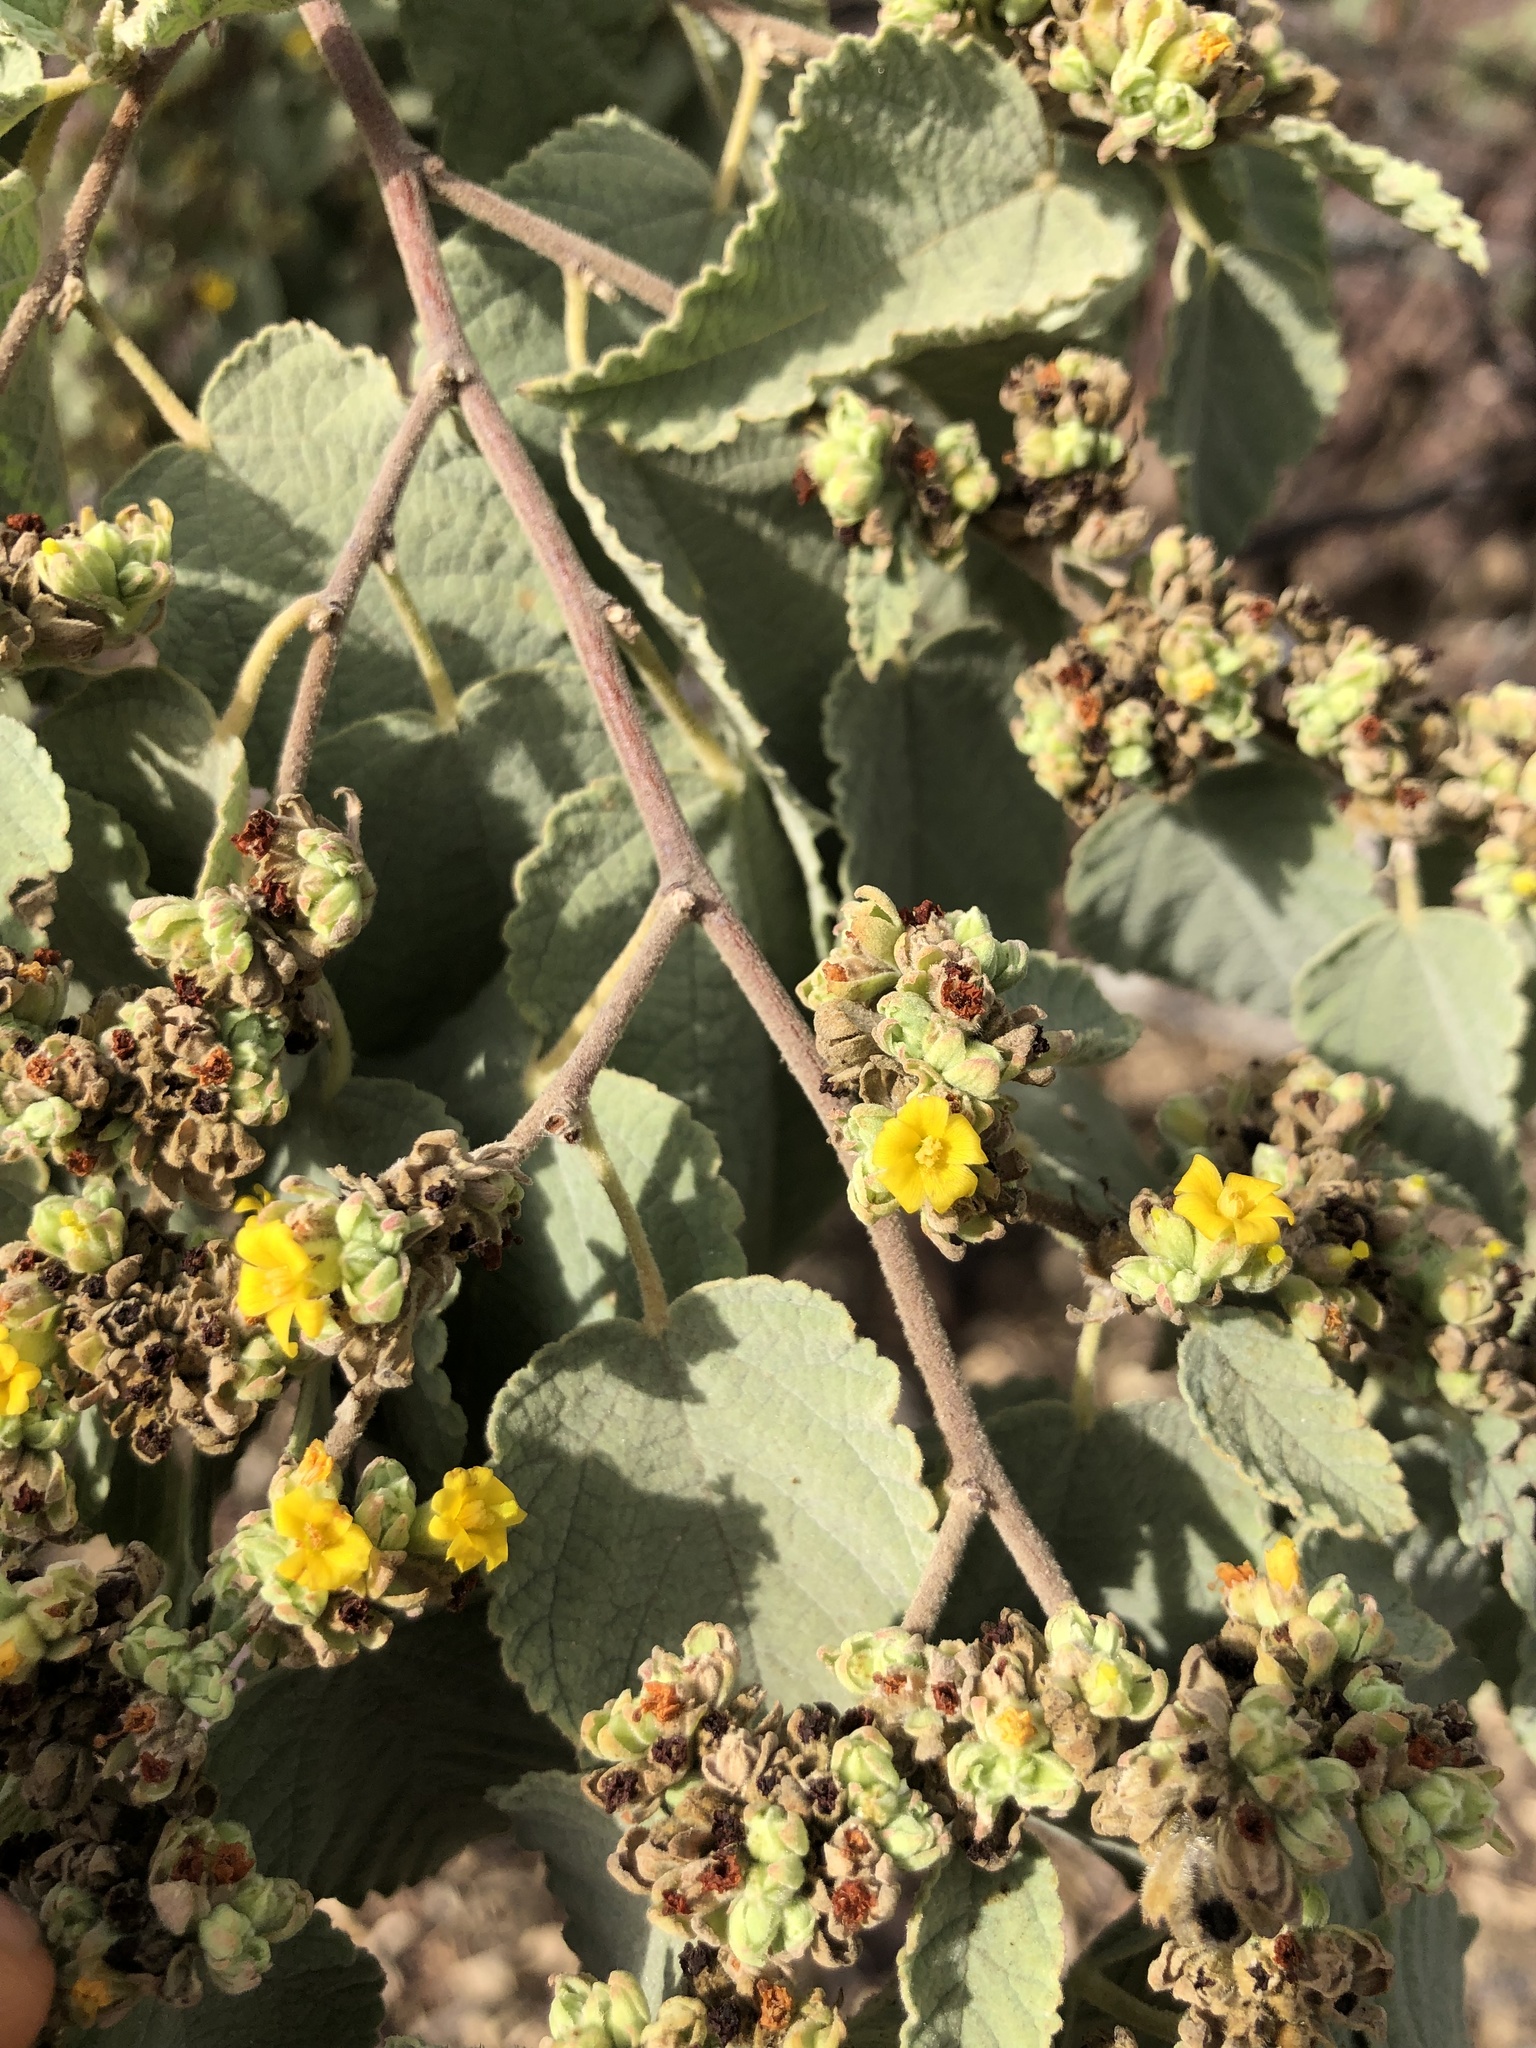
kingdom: Plantae
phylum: Tracheophyta
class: Magnoliopsida
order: Malvales
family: Malvaceae
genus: Waltheria
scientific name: Waltheria ovata
